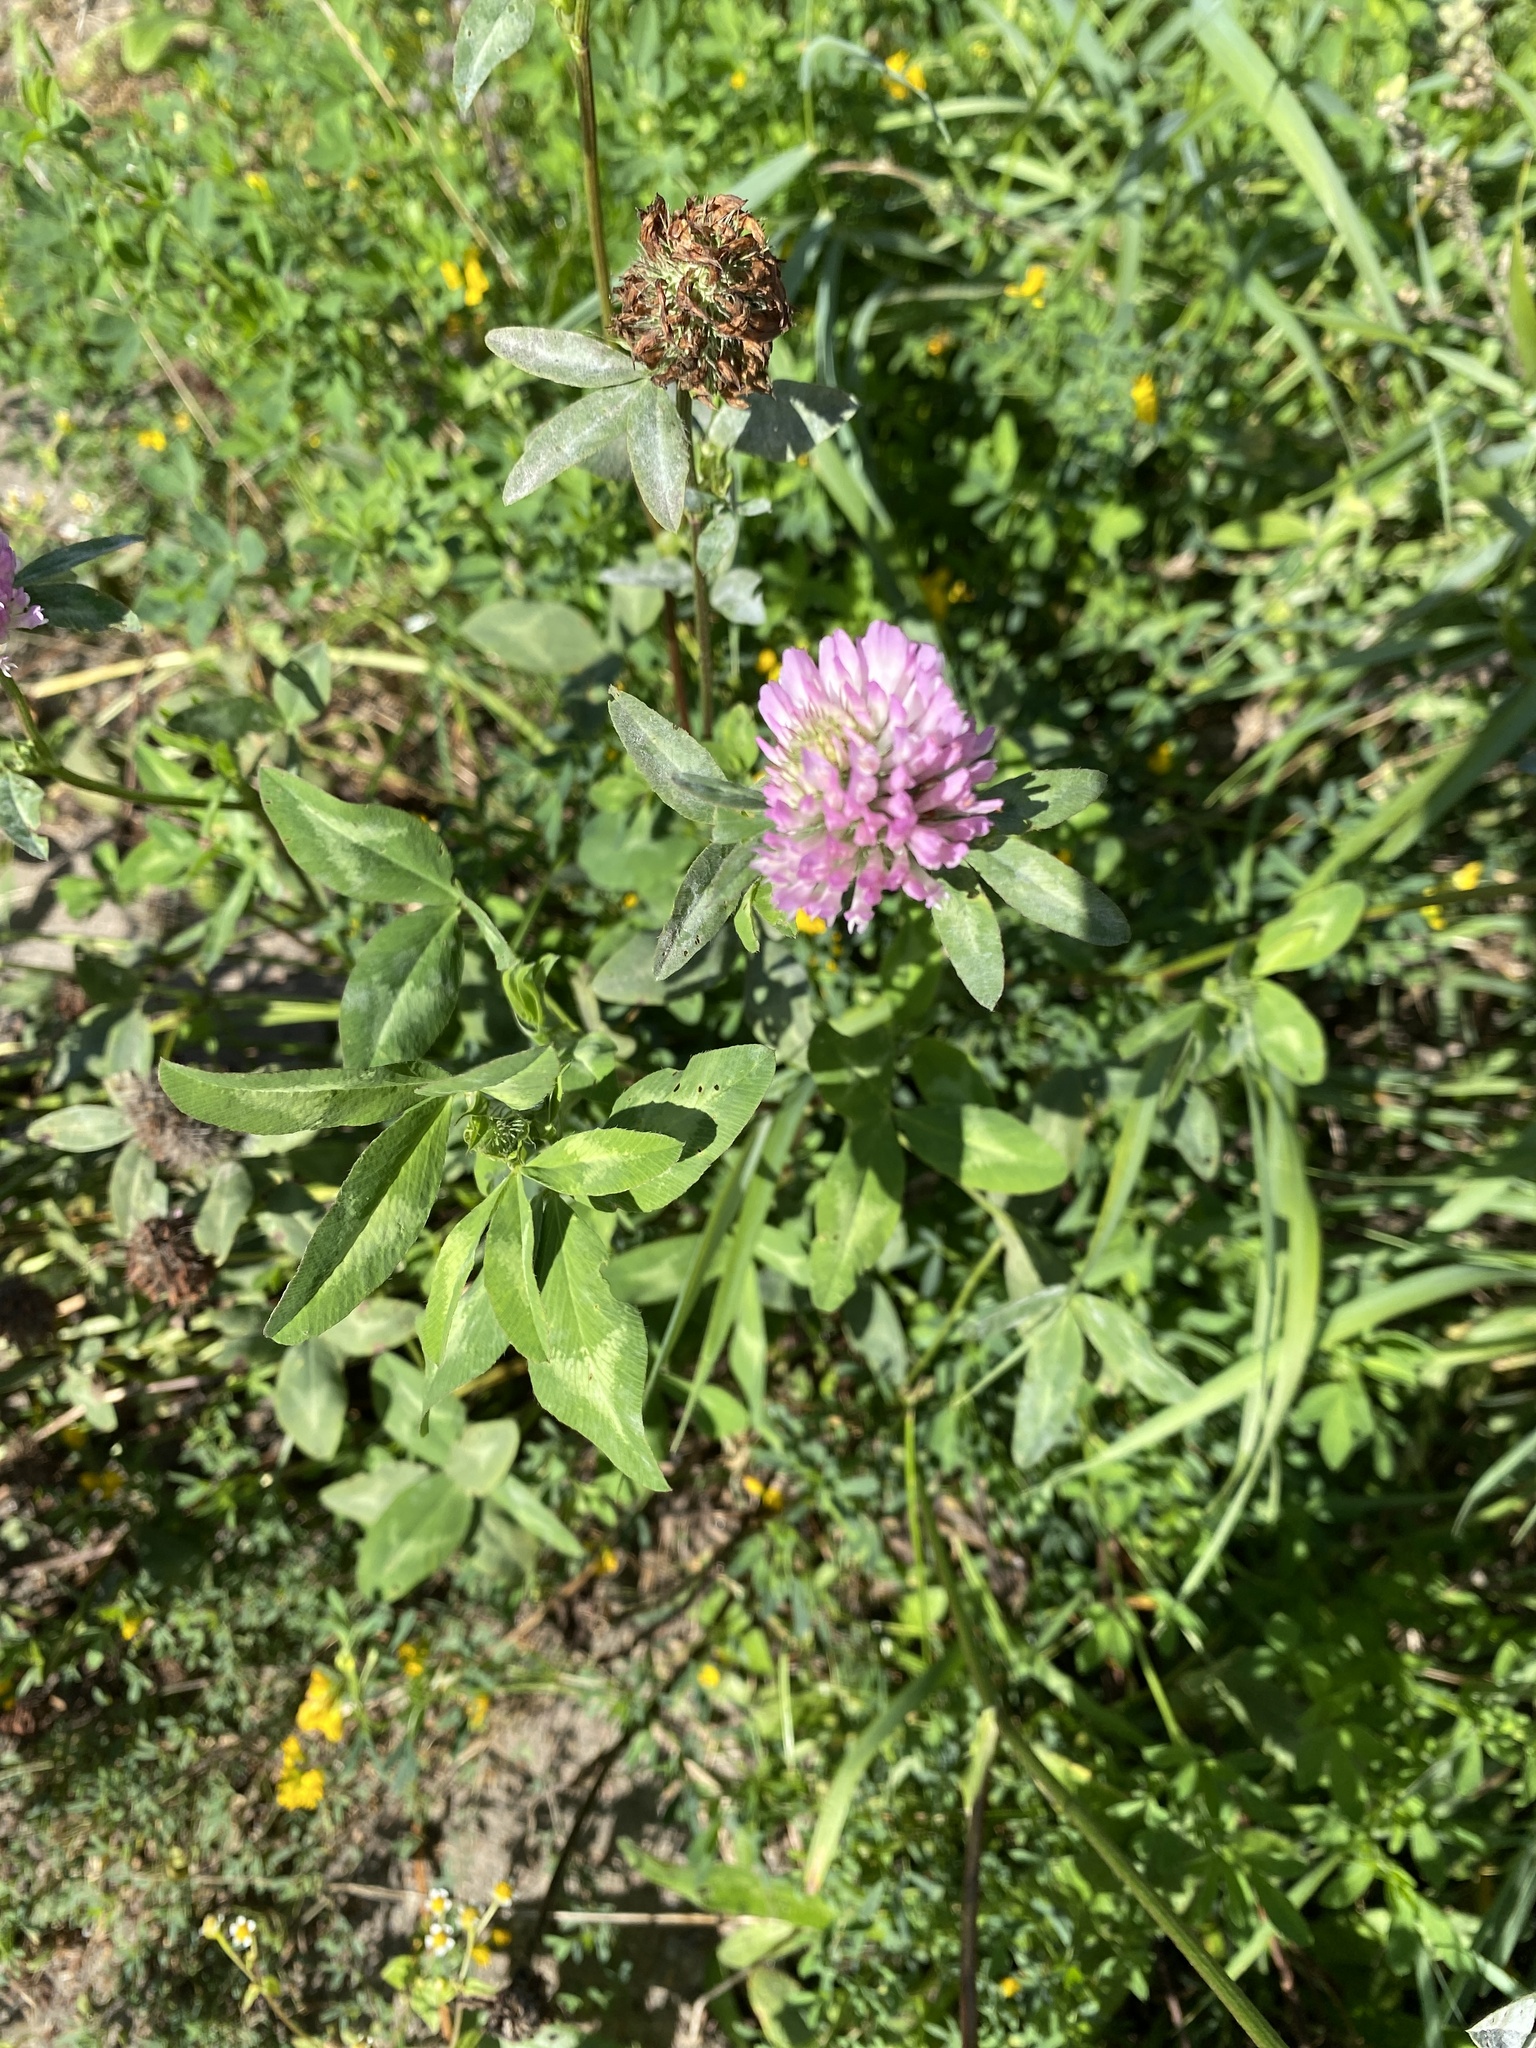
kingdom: Plantae
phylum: Tracheophyta
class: Magnoliopsida
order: Fabales
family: Fabaceae
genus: Trifolium
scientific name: Trifolium pratense
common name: Red clover
